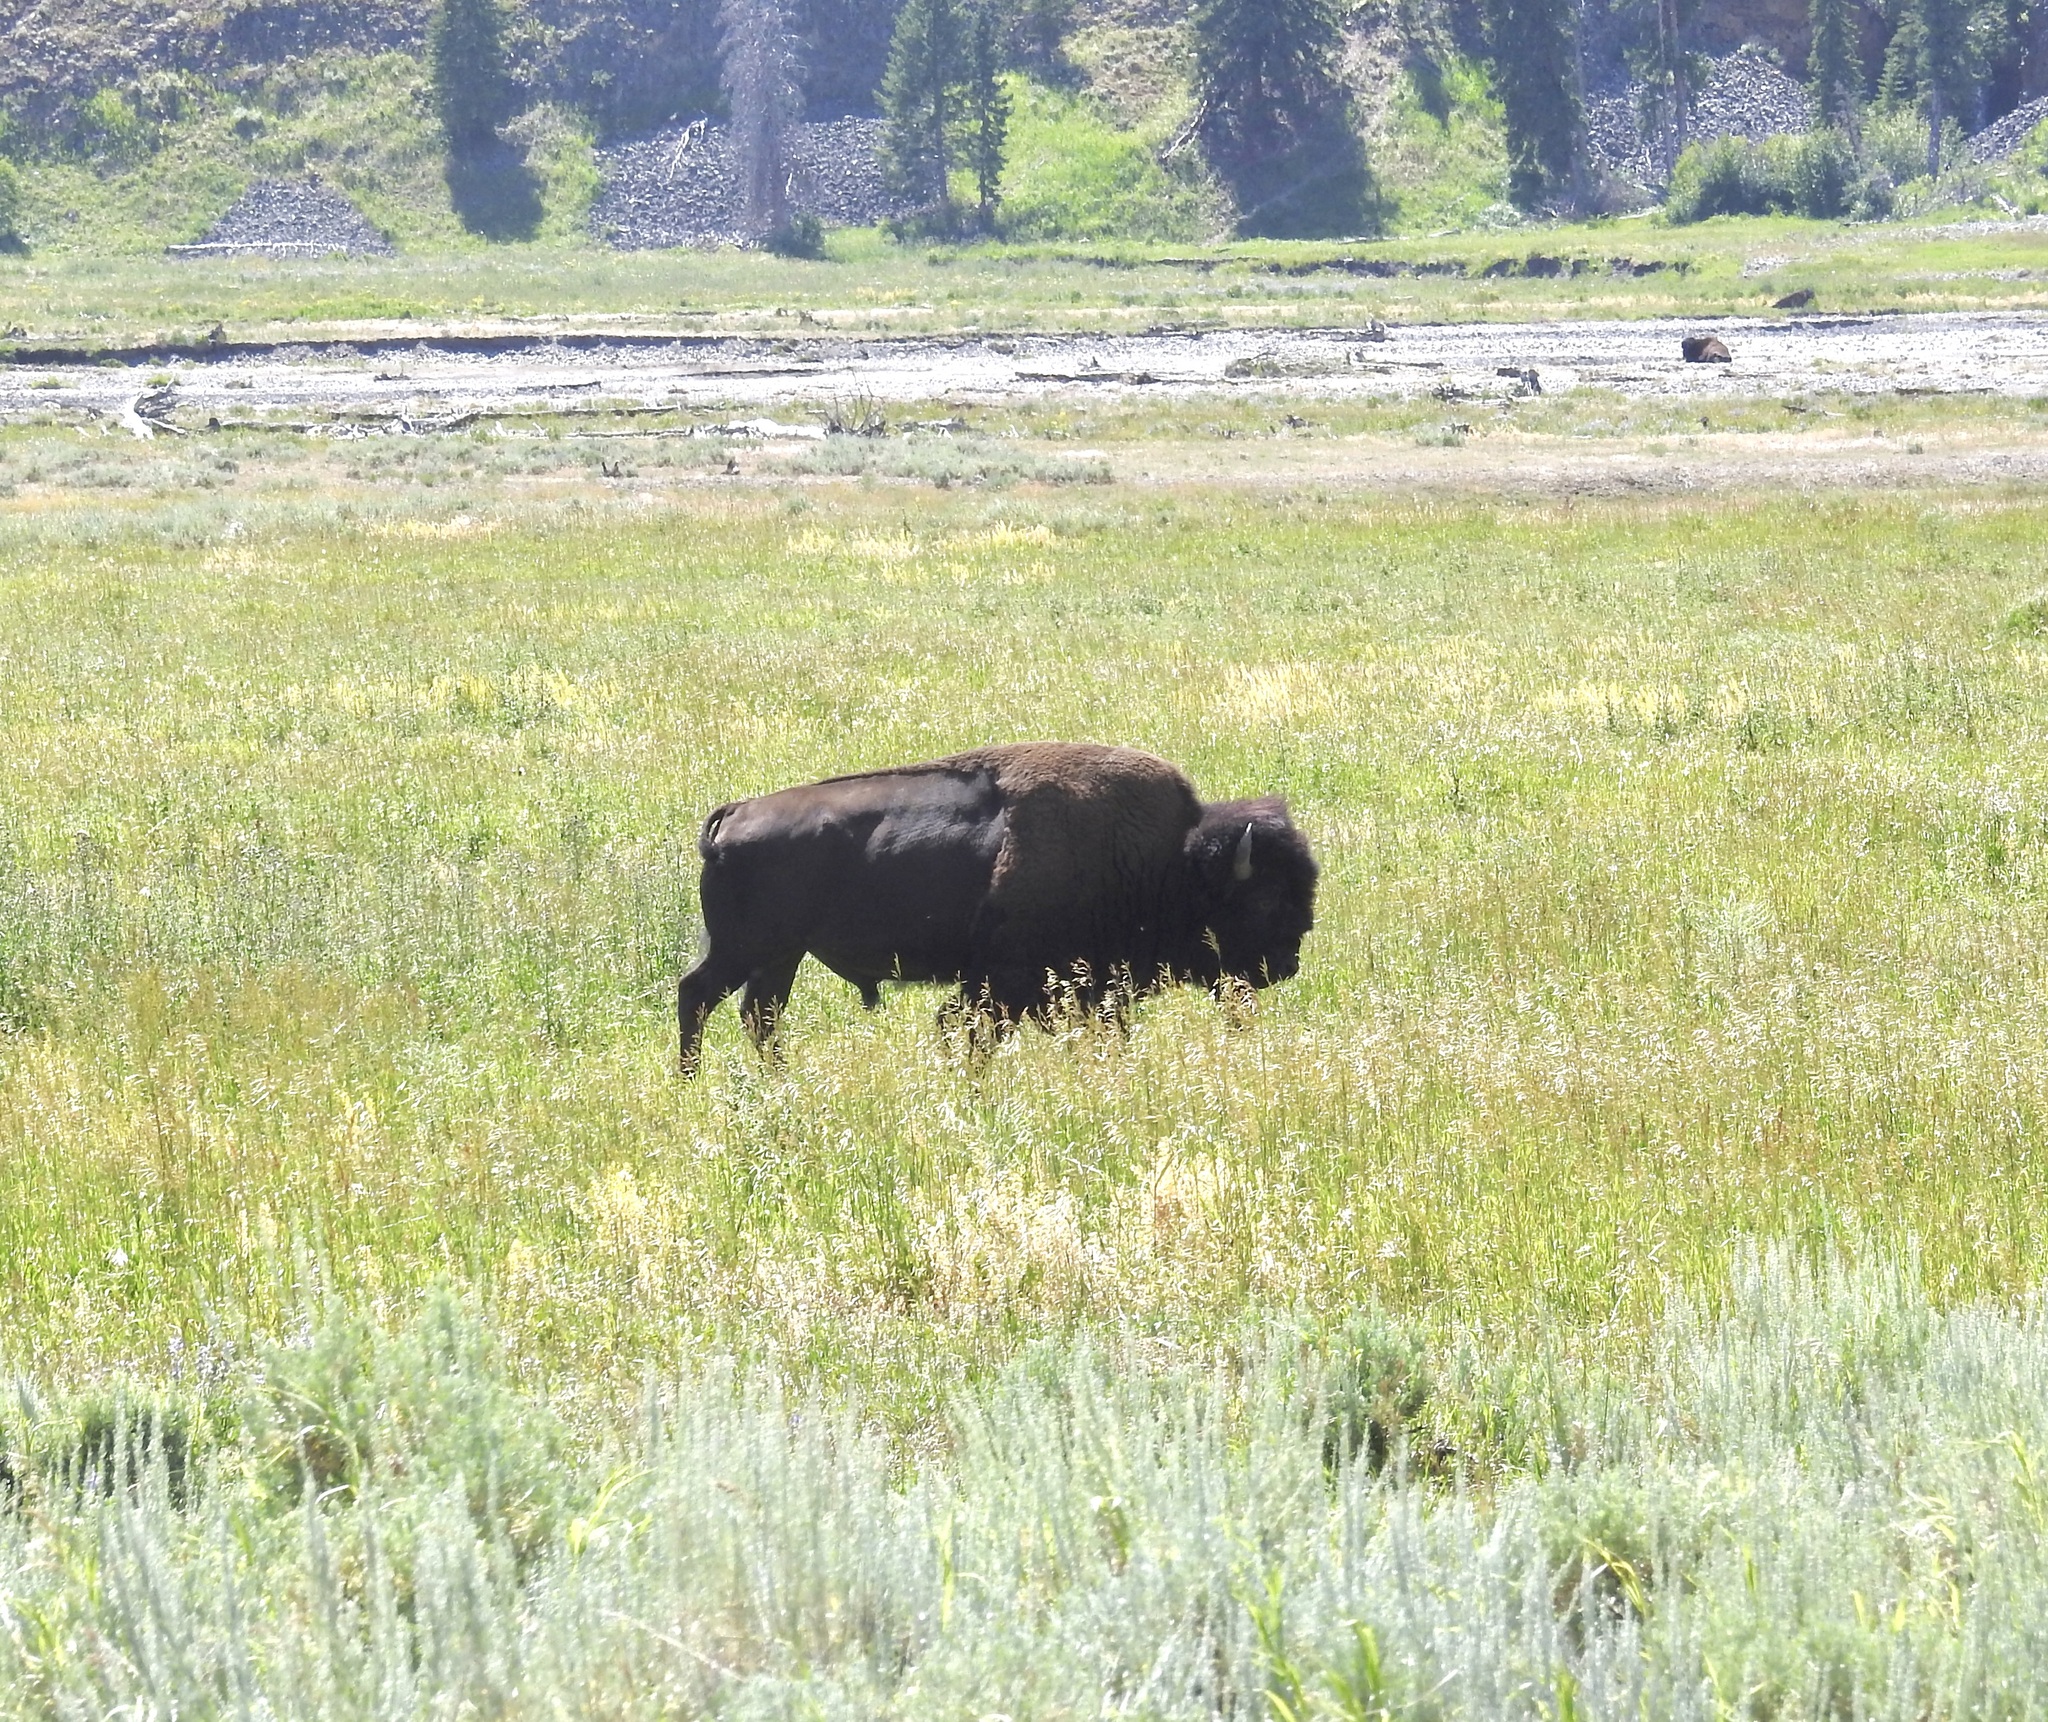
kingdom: Animalia
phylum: Chordata
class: Mammalia
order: Artiodactyla
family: Bovidae
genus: Bison
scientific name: Bison bison
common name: American bison
